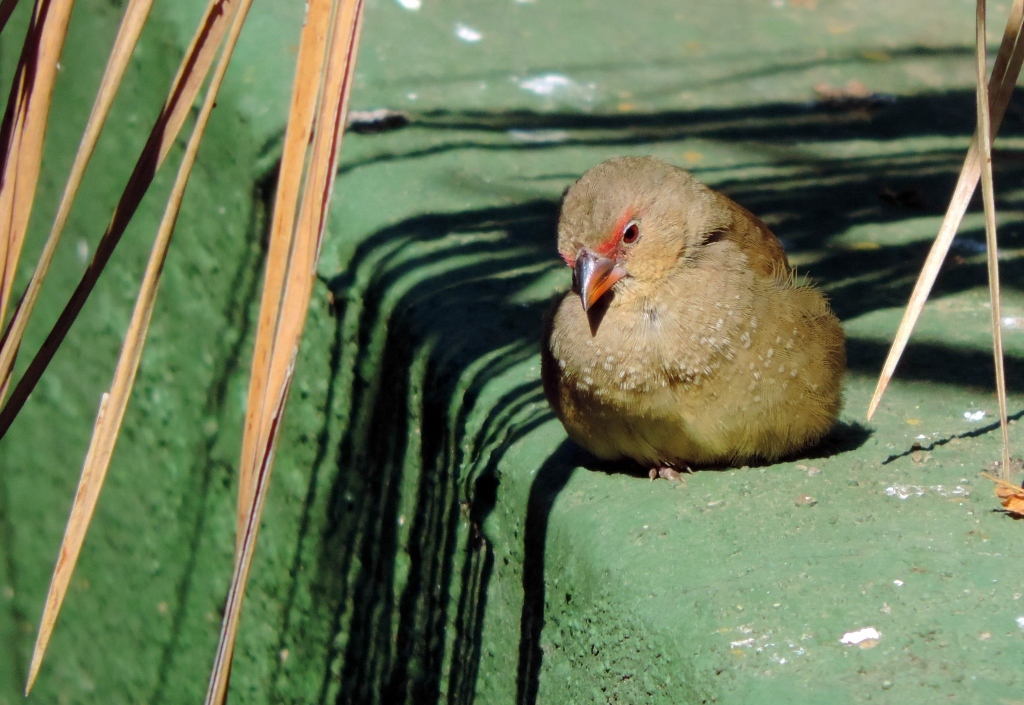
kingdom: Animalia
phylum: Chordata
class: Aves
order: Passeriformes
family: Estrildidae
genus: Lagonosticta
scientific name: Lagonosticta senegala
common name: Red-billed firefinch
